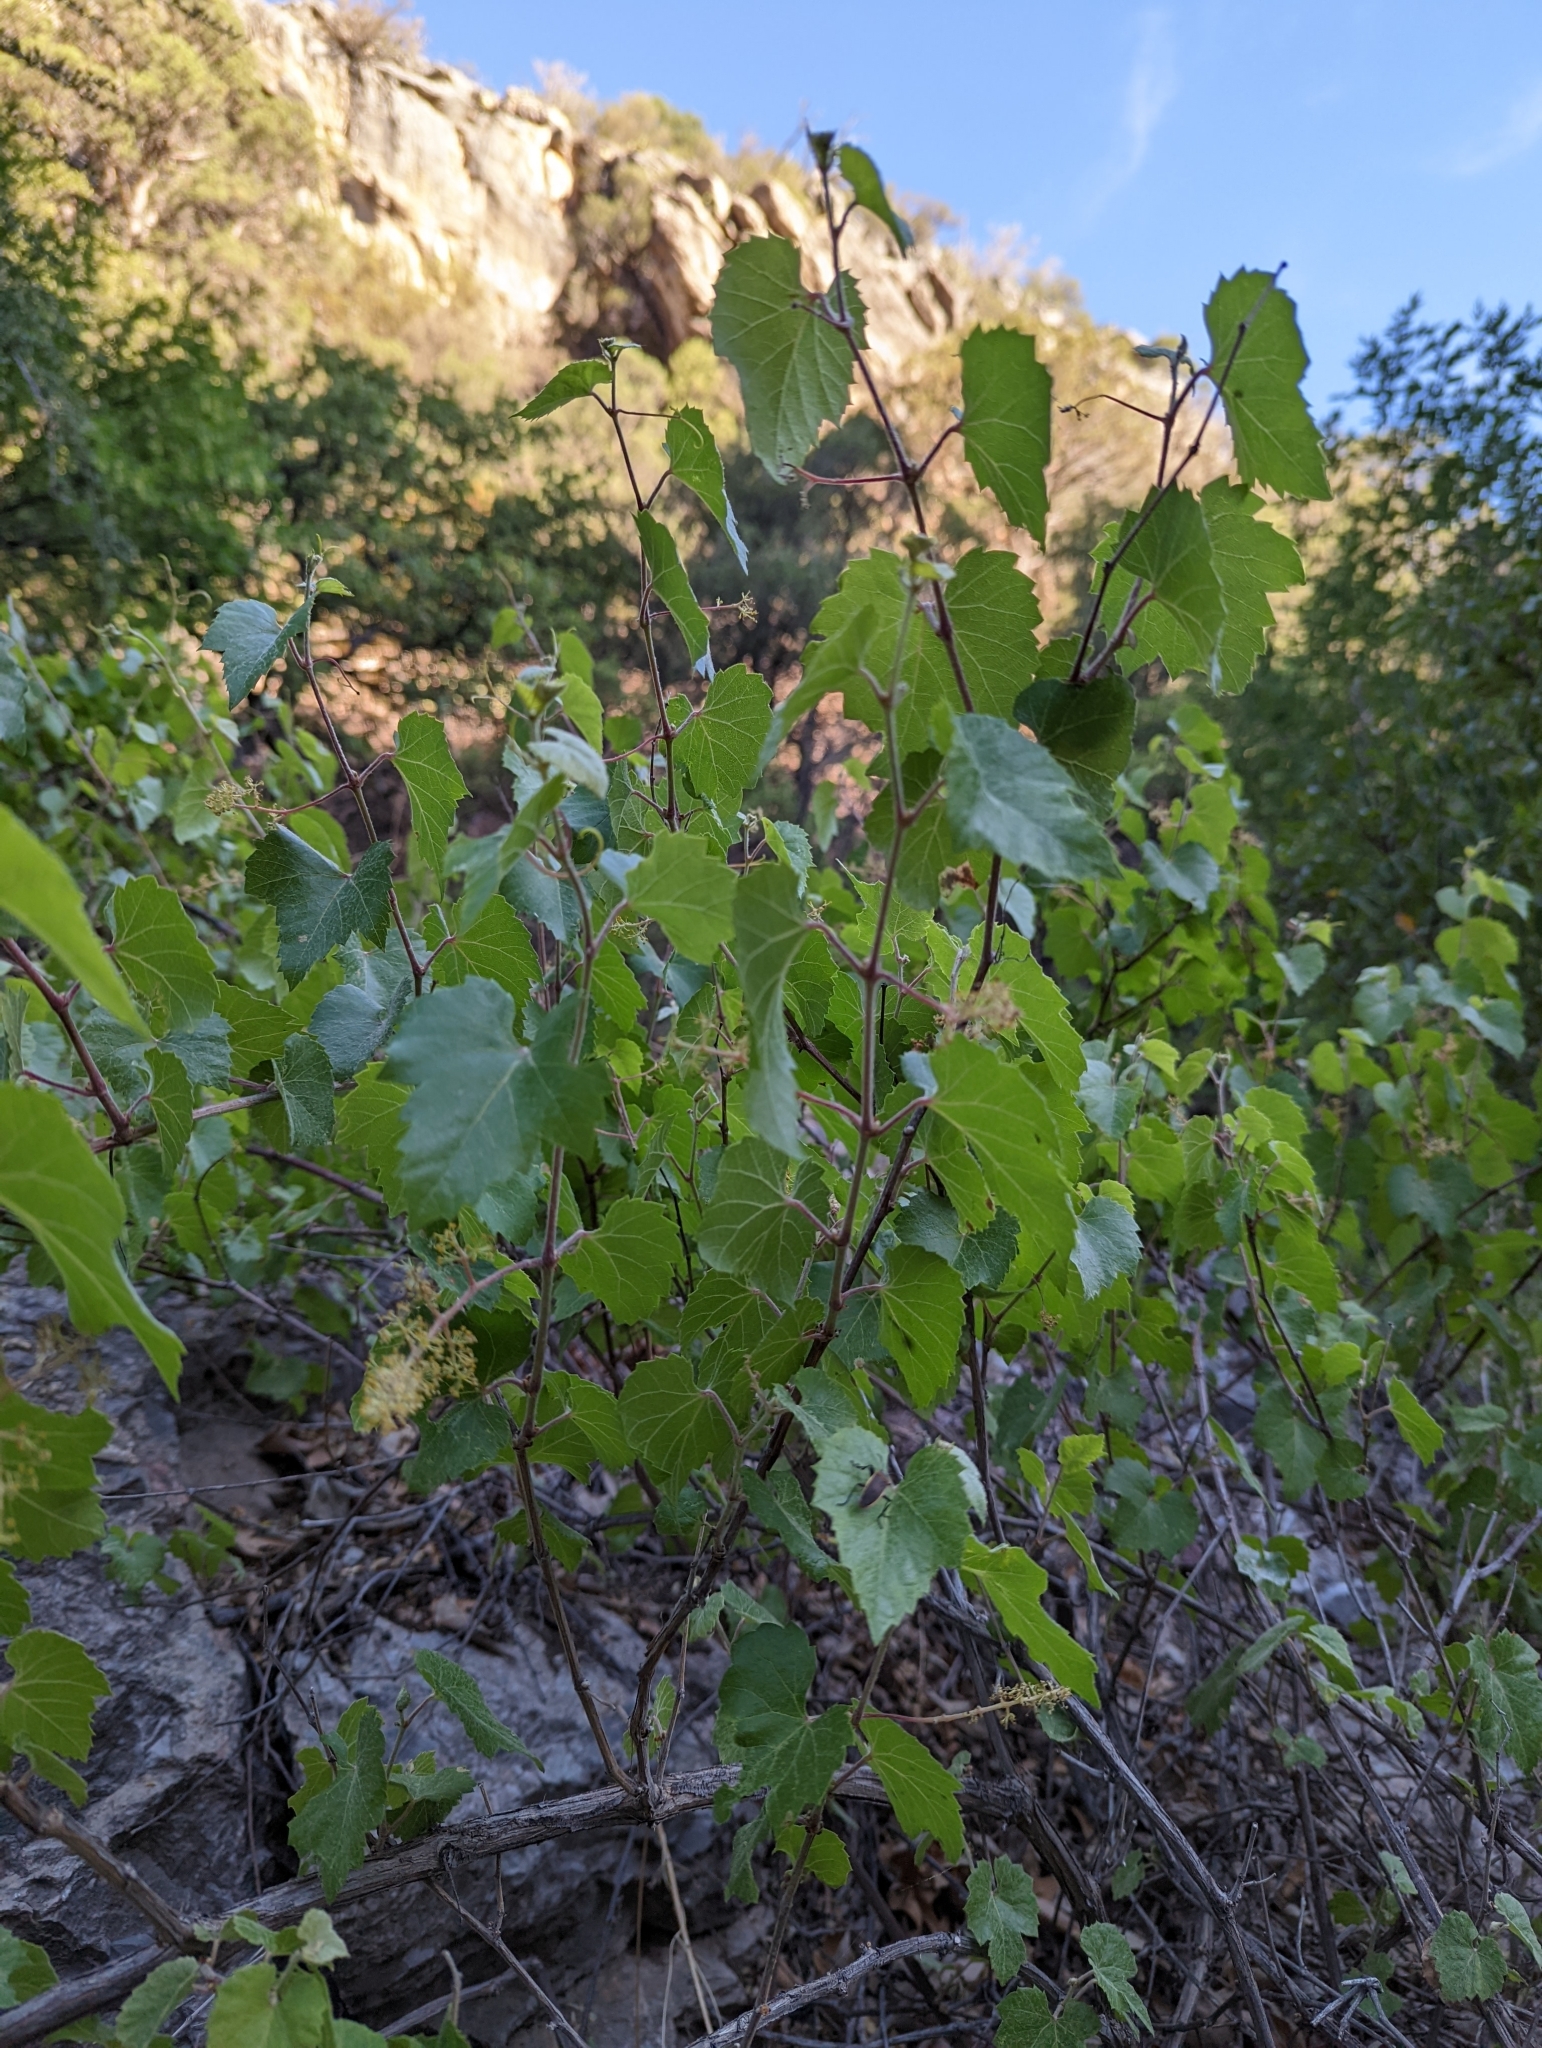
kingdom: Plantae
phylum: Tracheophyta
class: Magnoliopsida
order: Vitales
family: Vitaceae
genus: Vitis
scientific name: Vitis arizonica
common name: Canyon grape
